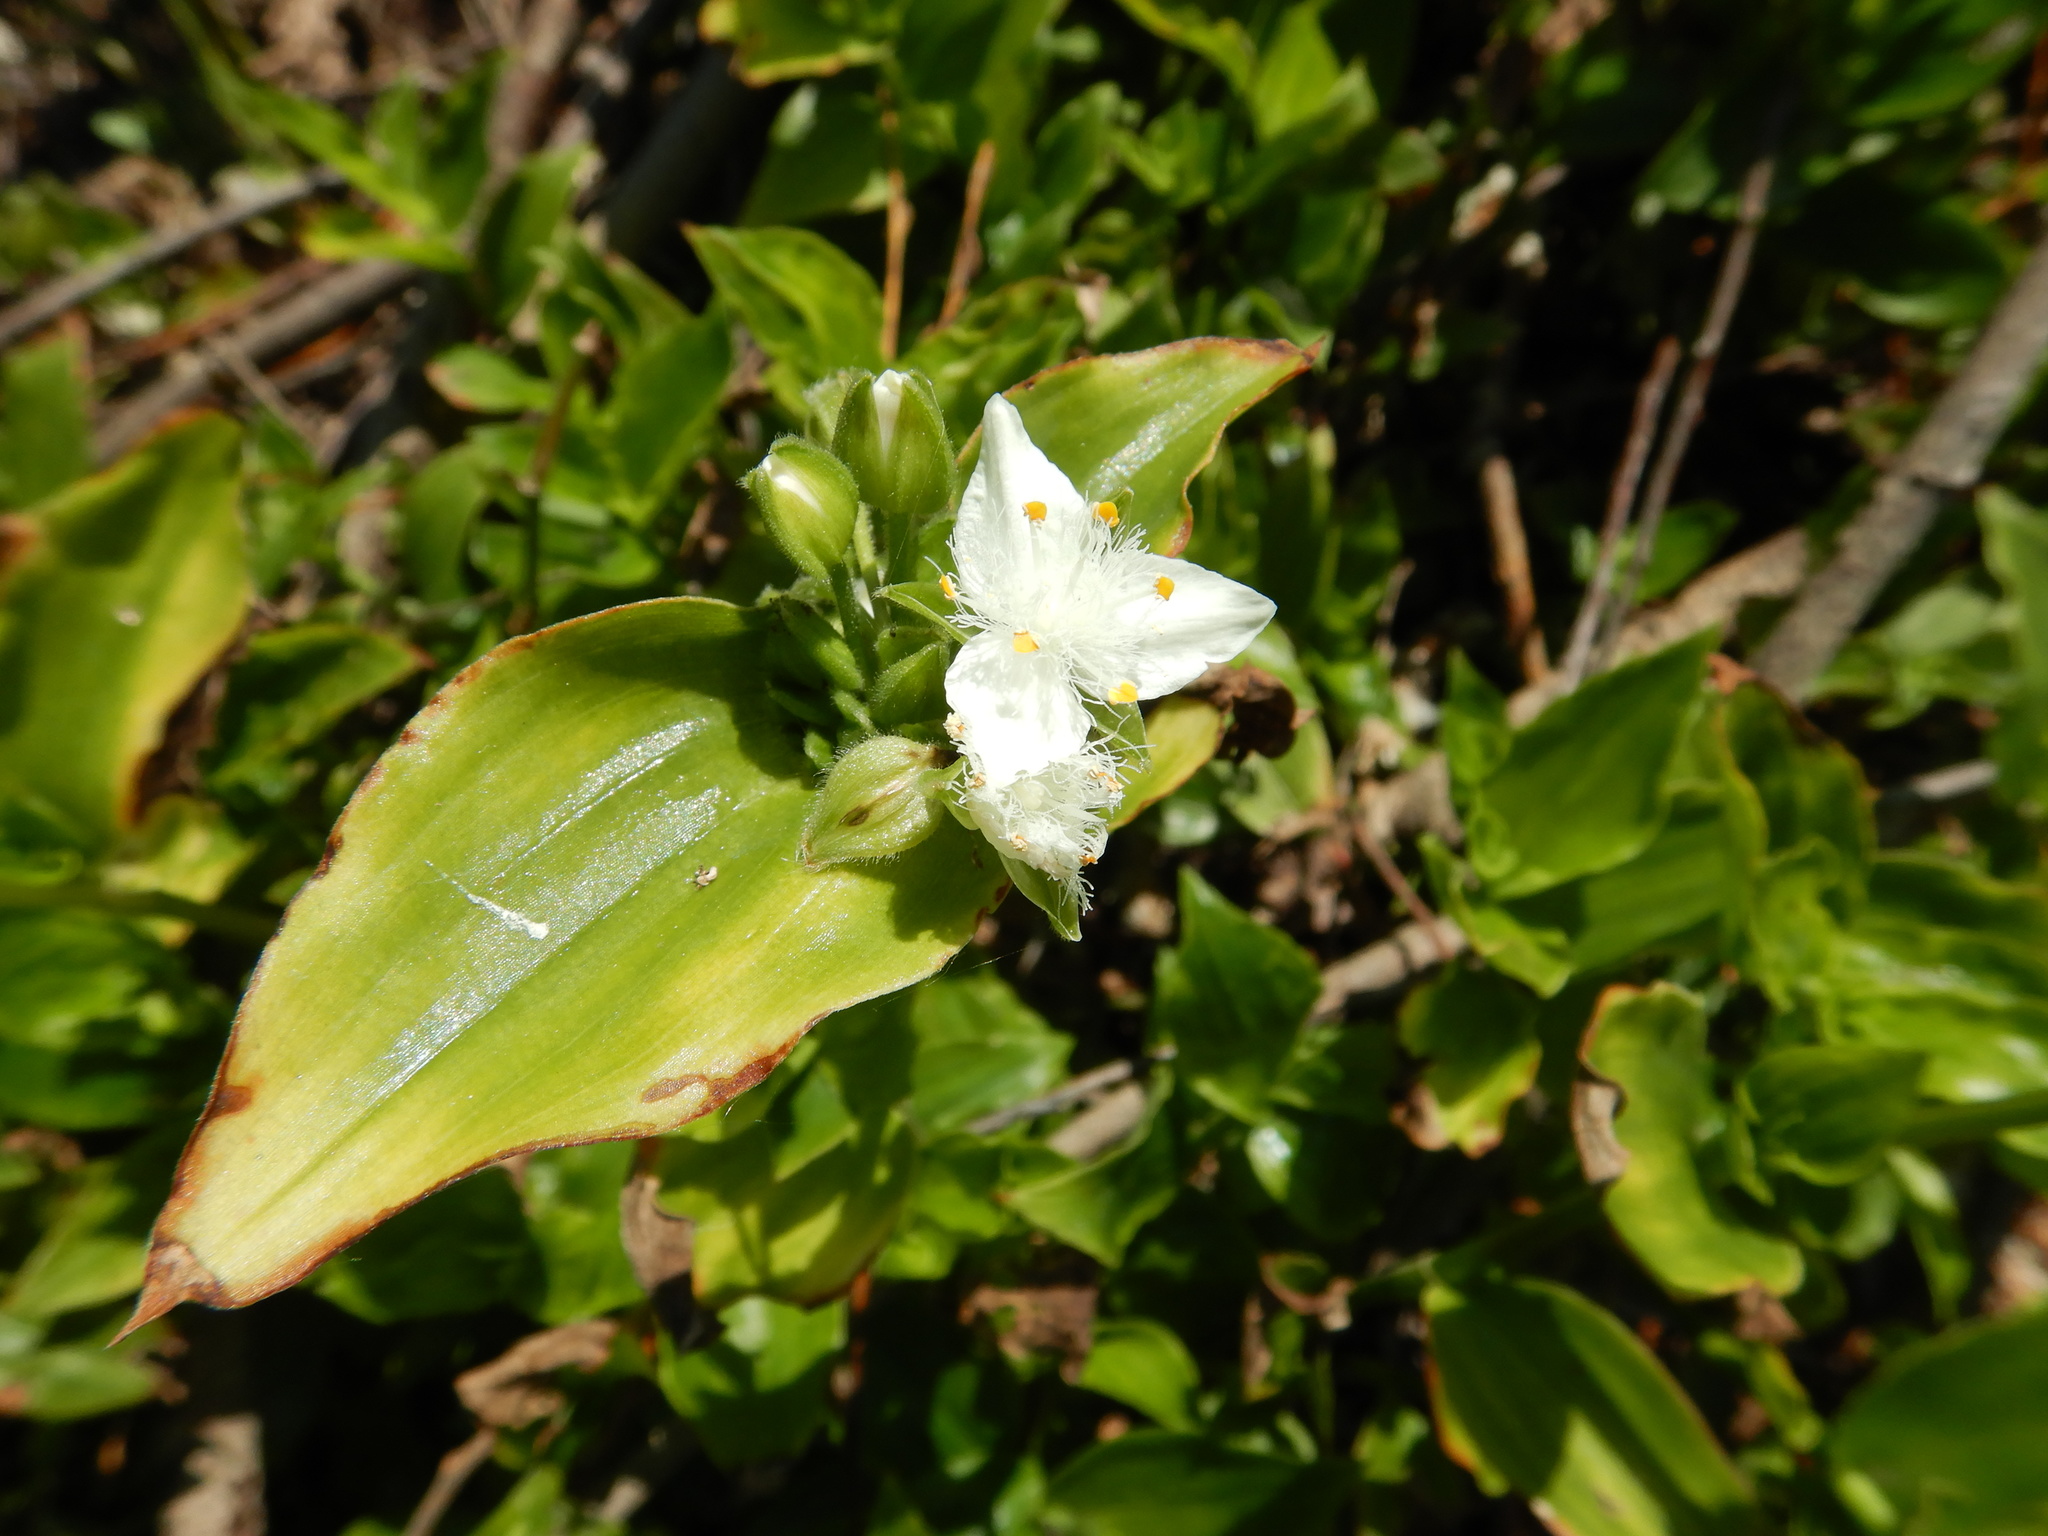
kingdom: Plantae
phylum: Tracheophyta
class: Liliopsida
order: Commelinales
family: Commelinaceae
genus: Tradescantia
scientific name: Tradescantia fluminensis
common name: Wandering-jew
